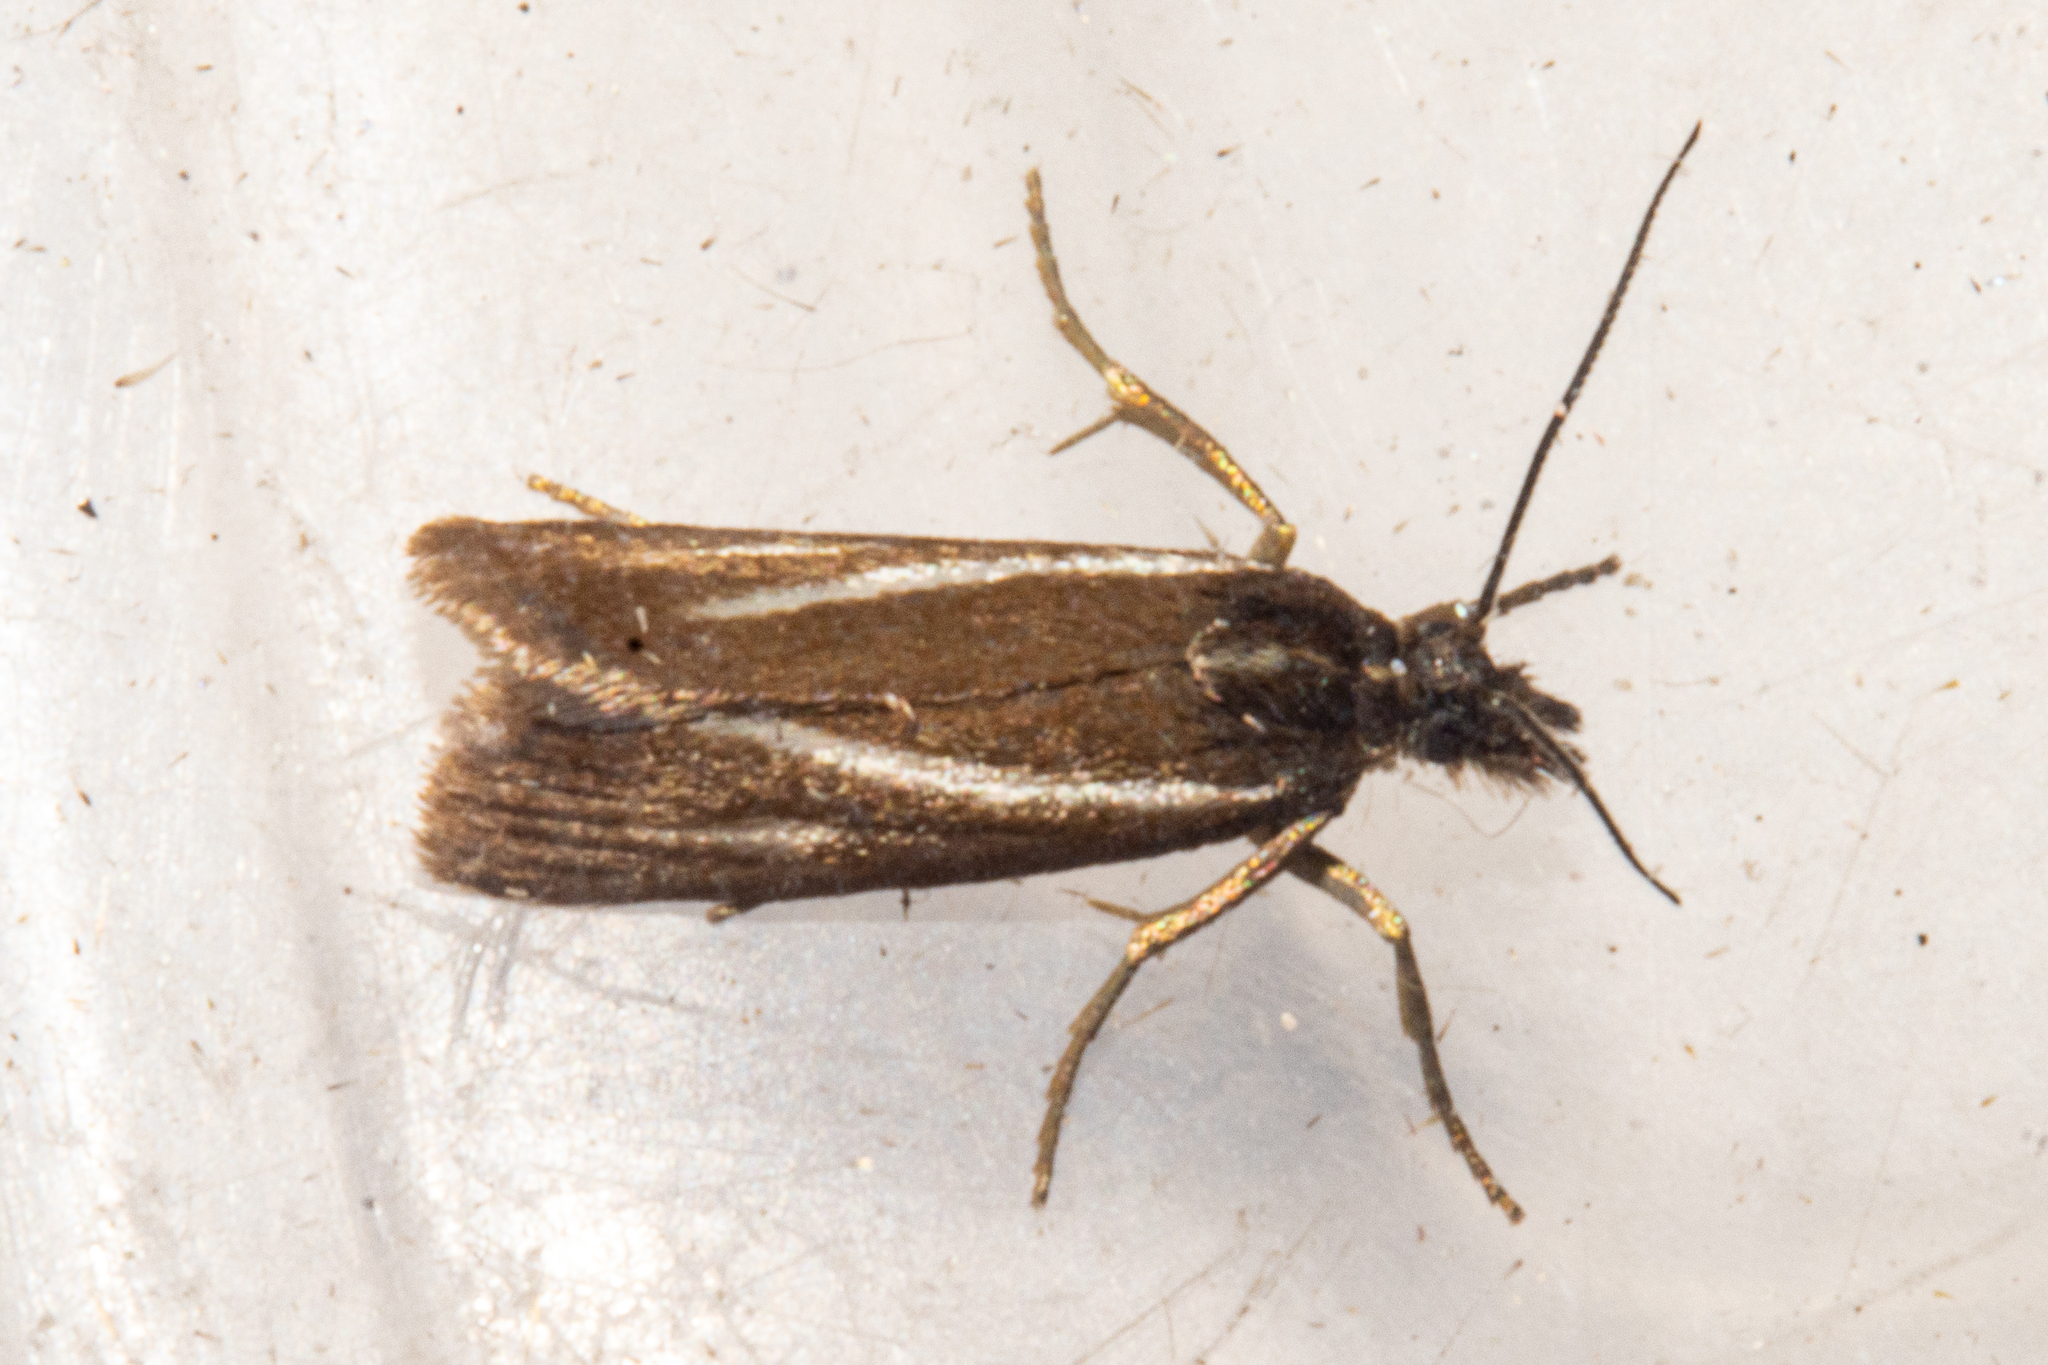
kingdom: Animalia
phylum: Arthropoda
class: Insecta
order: Lepidoptera
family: Crambidae
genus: Orocrambus
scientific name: Orocrambus heliotes
